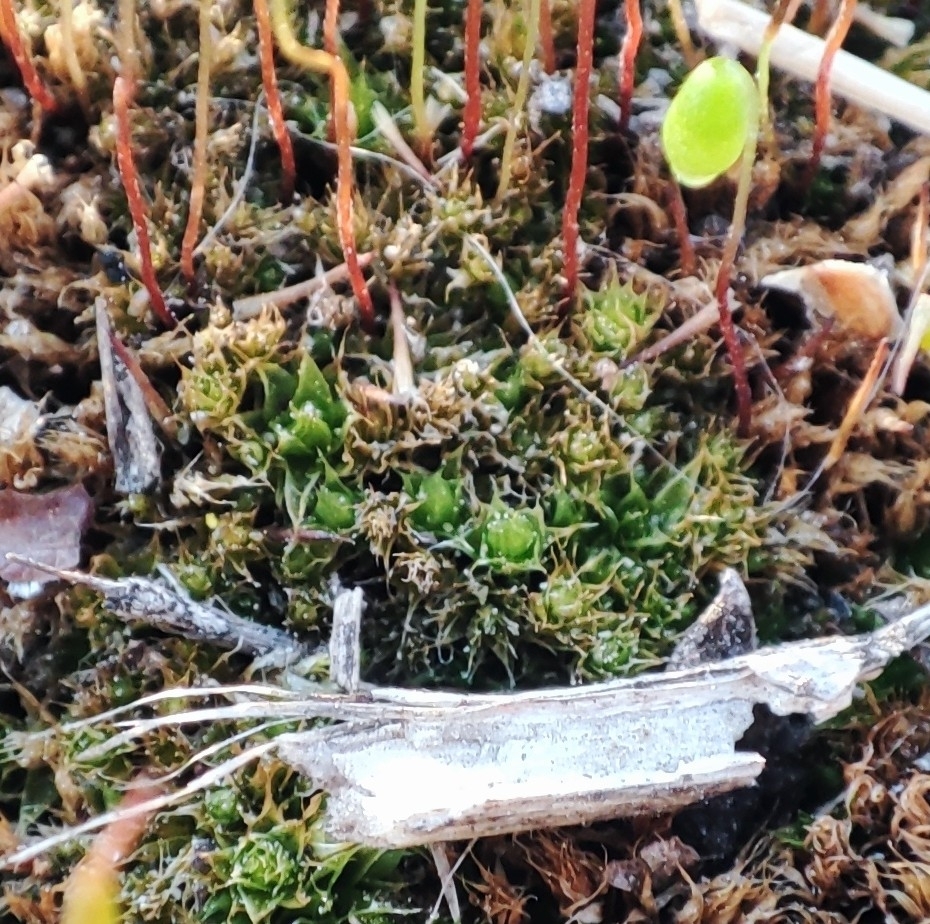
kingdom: Plantae
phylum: Bryophyta
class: Bryopsida
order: Bryales
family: Mniaceae
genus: Pohlia
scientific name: Pohlia nutans
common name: Nodding thread-moss
